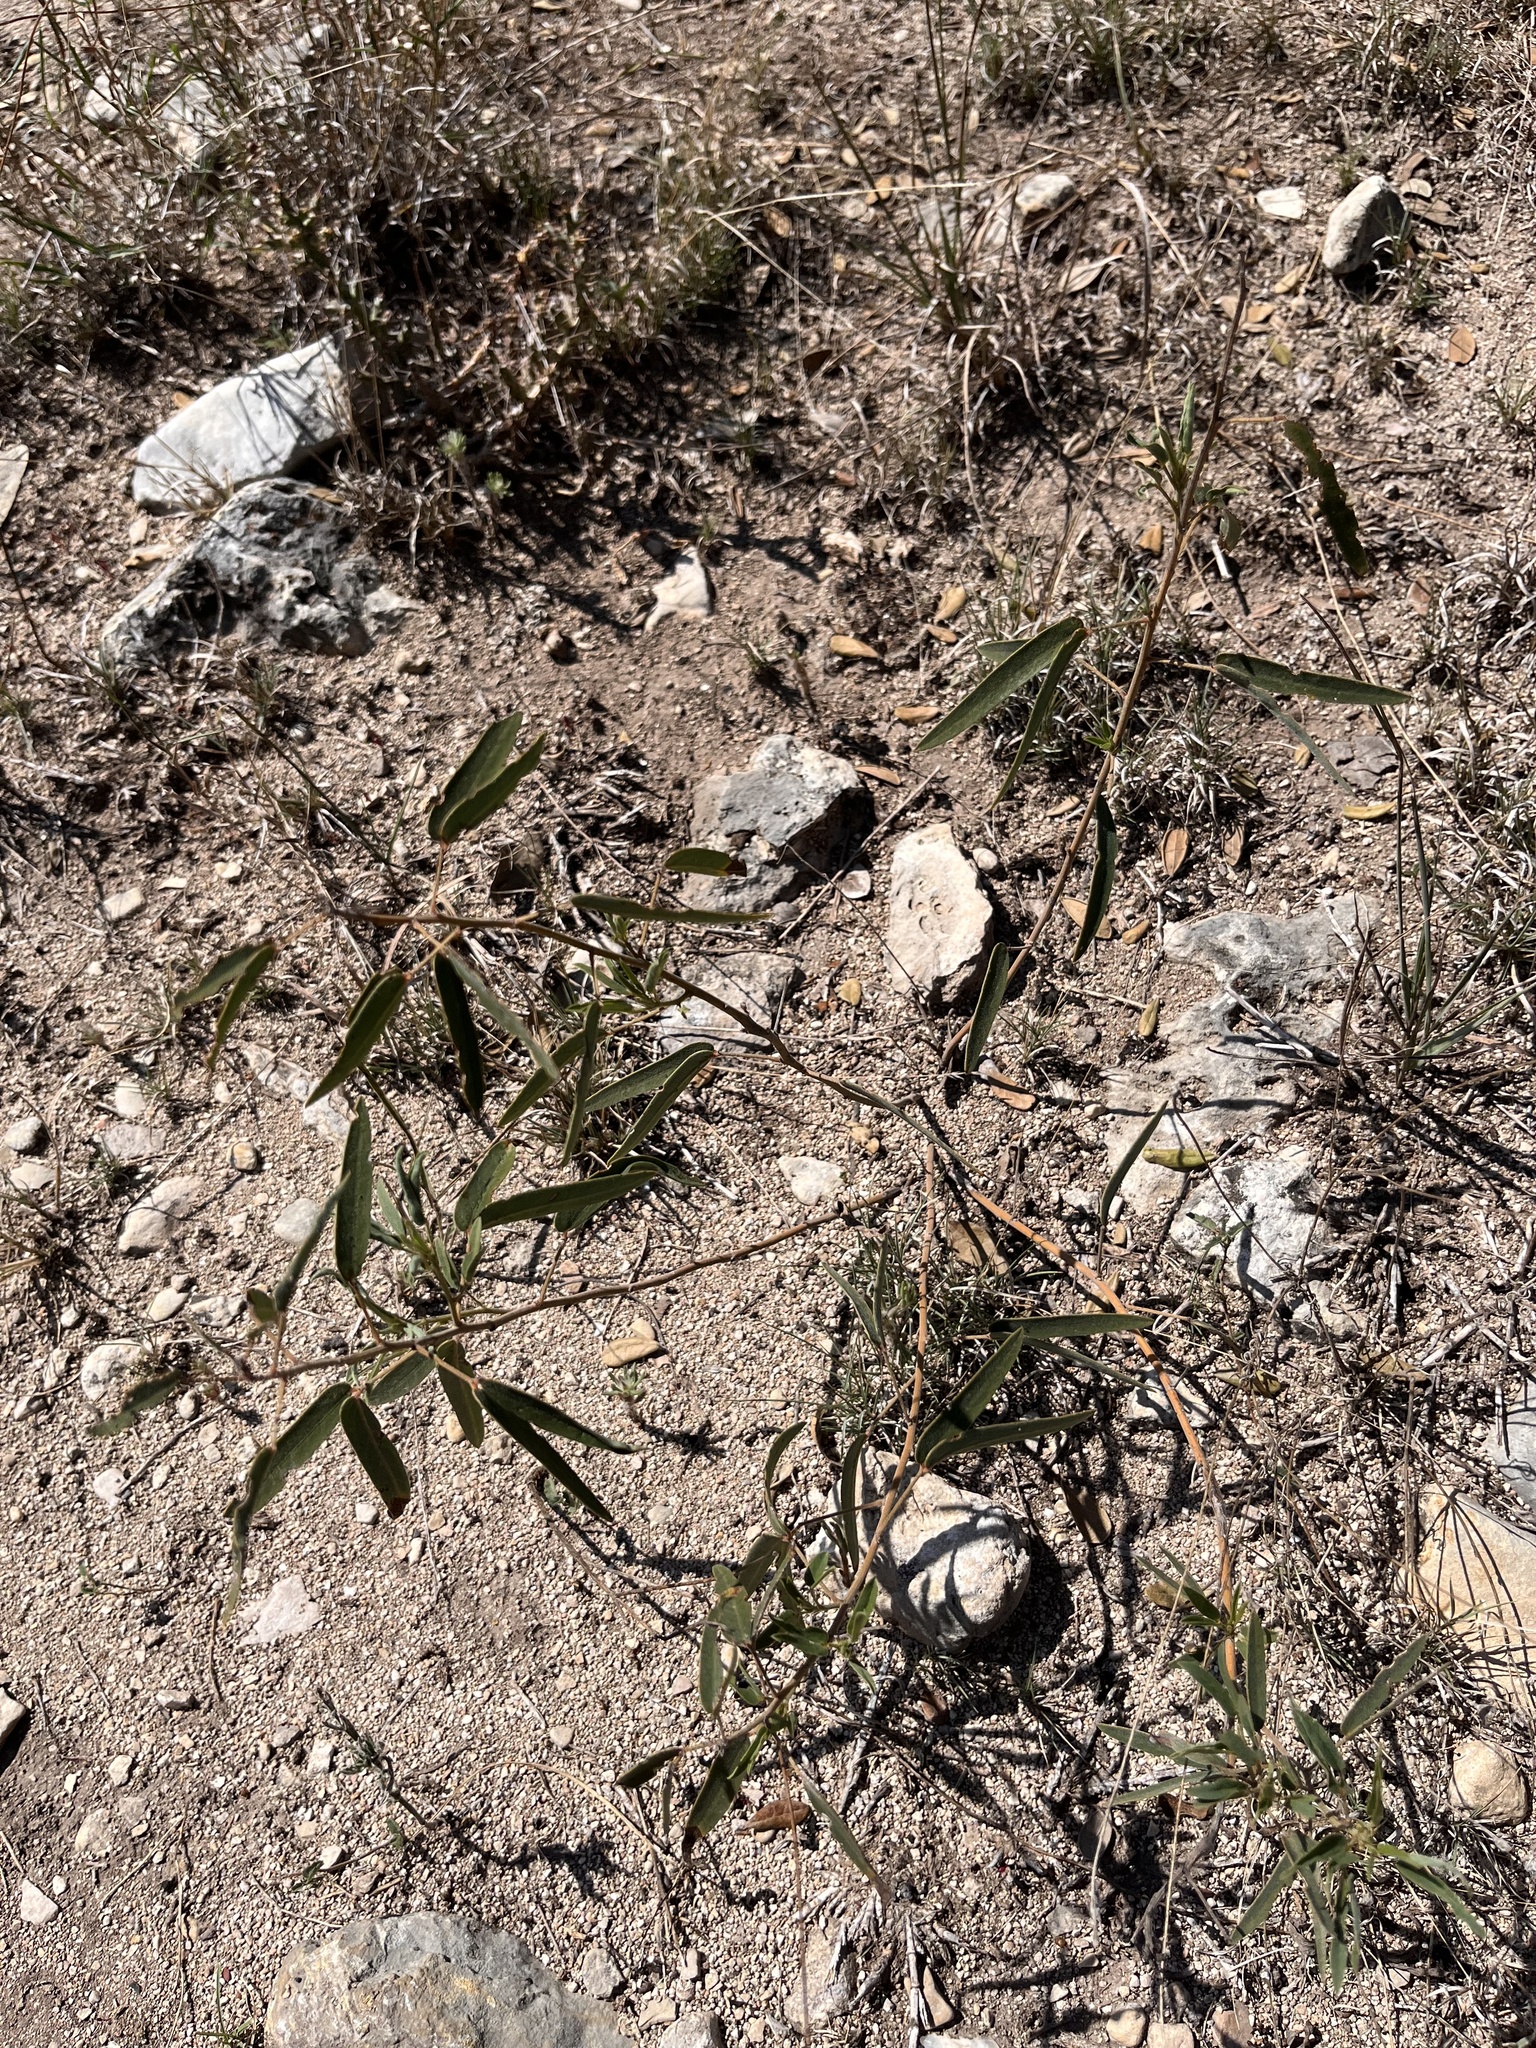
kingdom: Plantae
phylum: Tracheophyta
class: Magnoliopsida
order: Fabales
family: Fabaceae
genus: Senna
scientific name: Senna roemeriana
